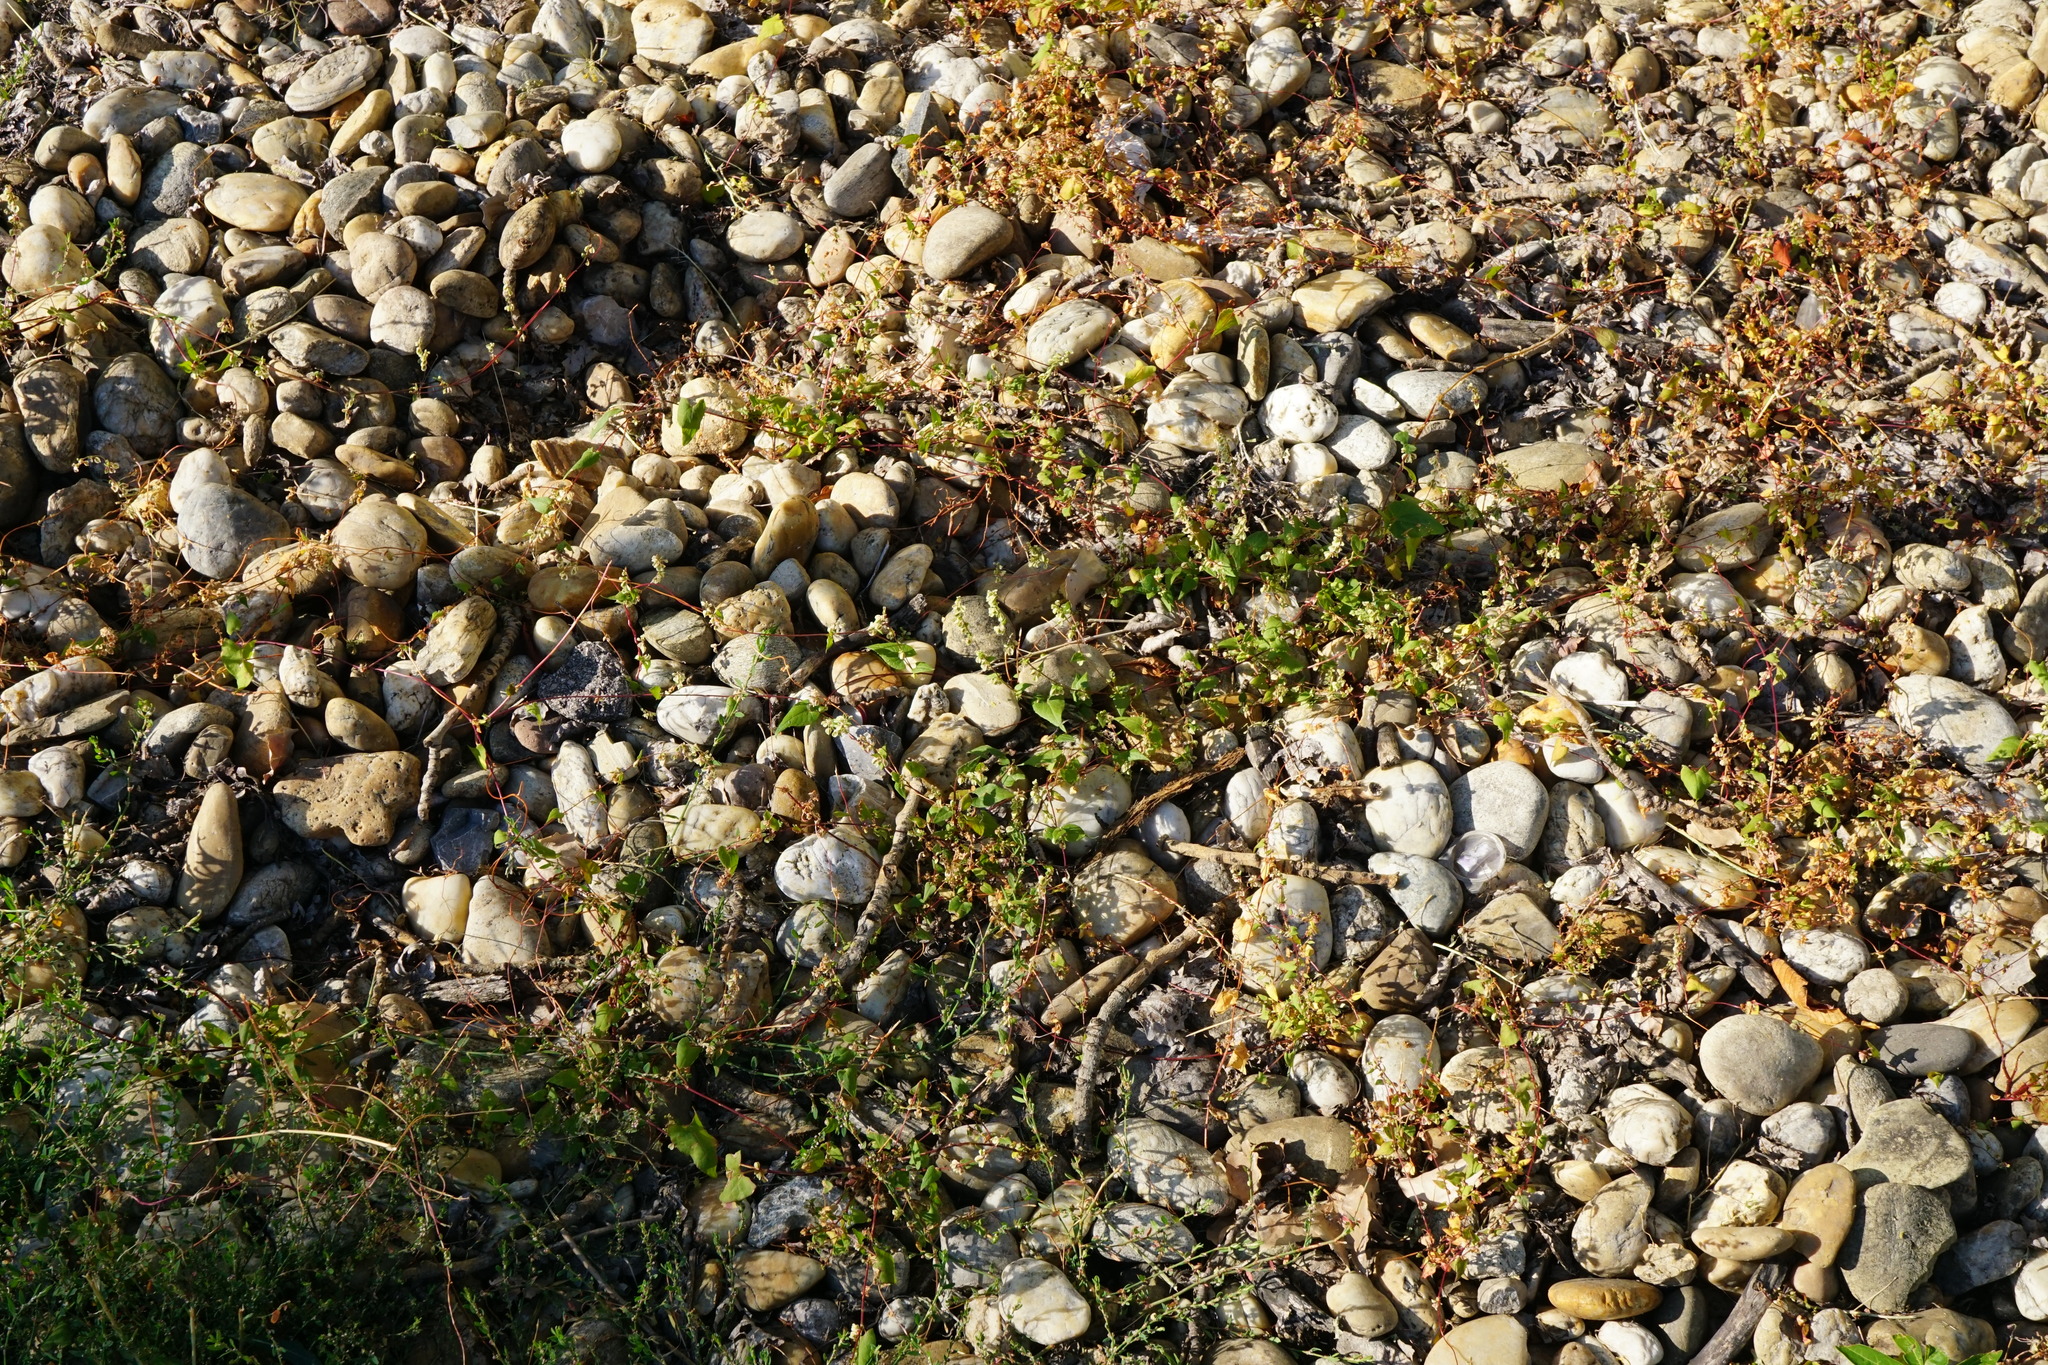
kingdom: Plantae
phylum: Tracheophyta
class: Magnoliopsida
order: Caryophyllales
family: Polygonaceae
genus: Fallopia
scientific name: Fallopia dumetorum
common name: Copse-bindweed
